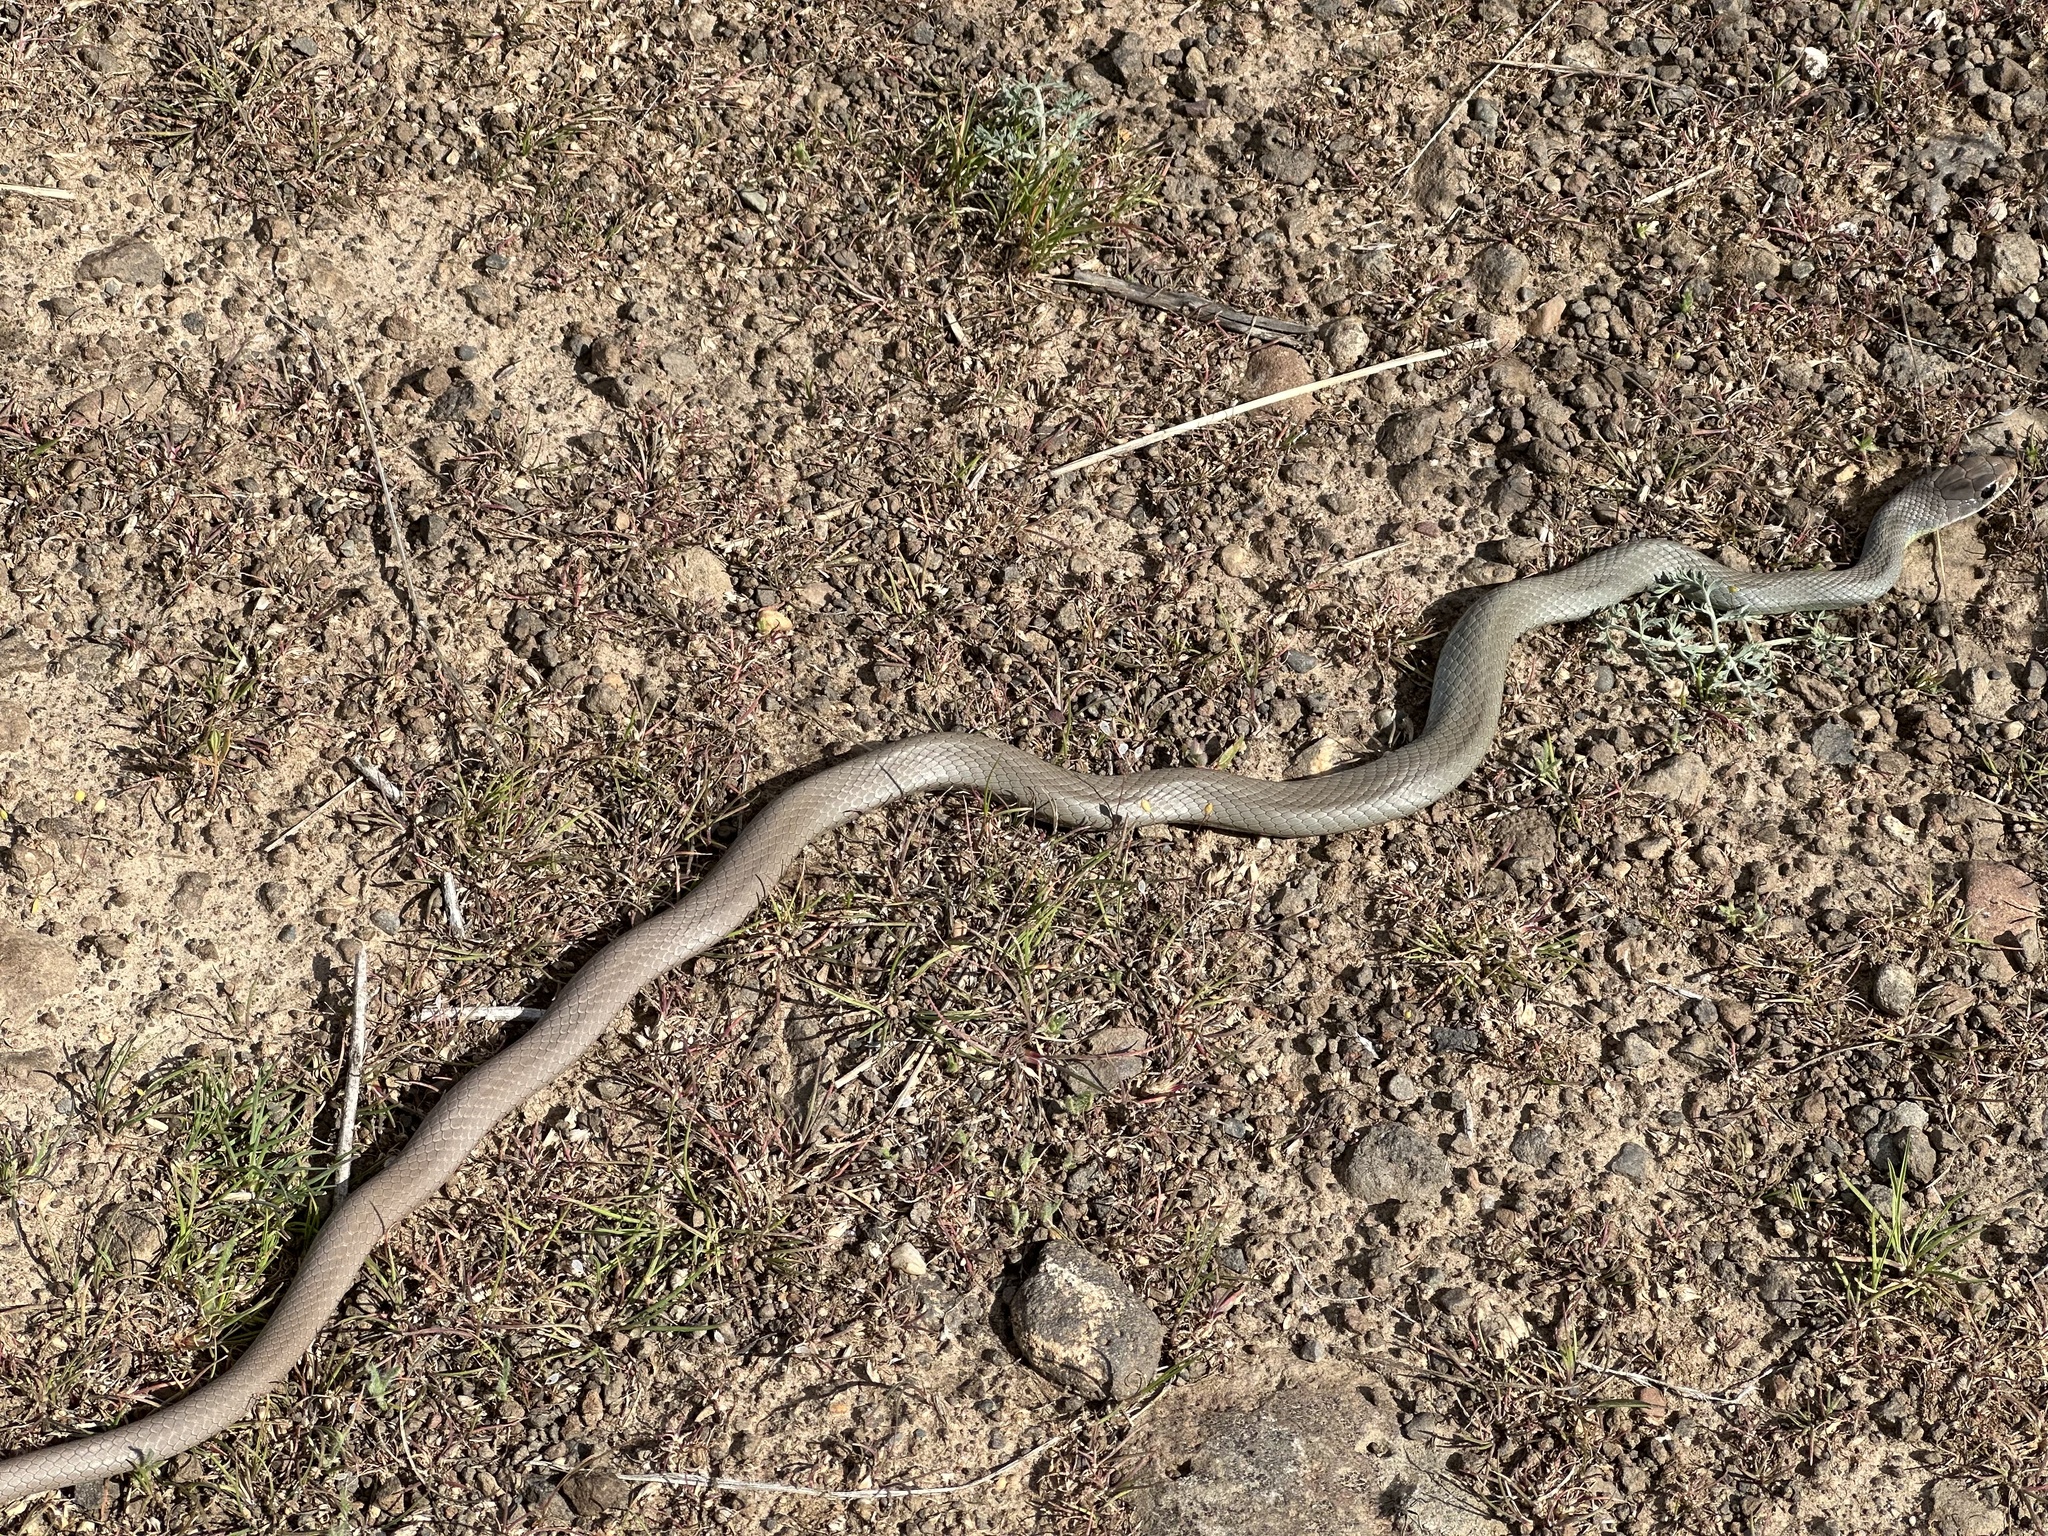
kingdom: Animalia
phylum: Chordata
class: Squamata
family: Colubridae
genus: Coluber
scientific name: Coluber constrictor
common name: Eastern racer
